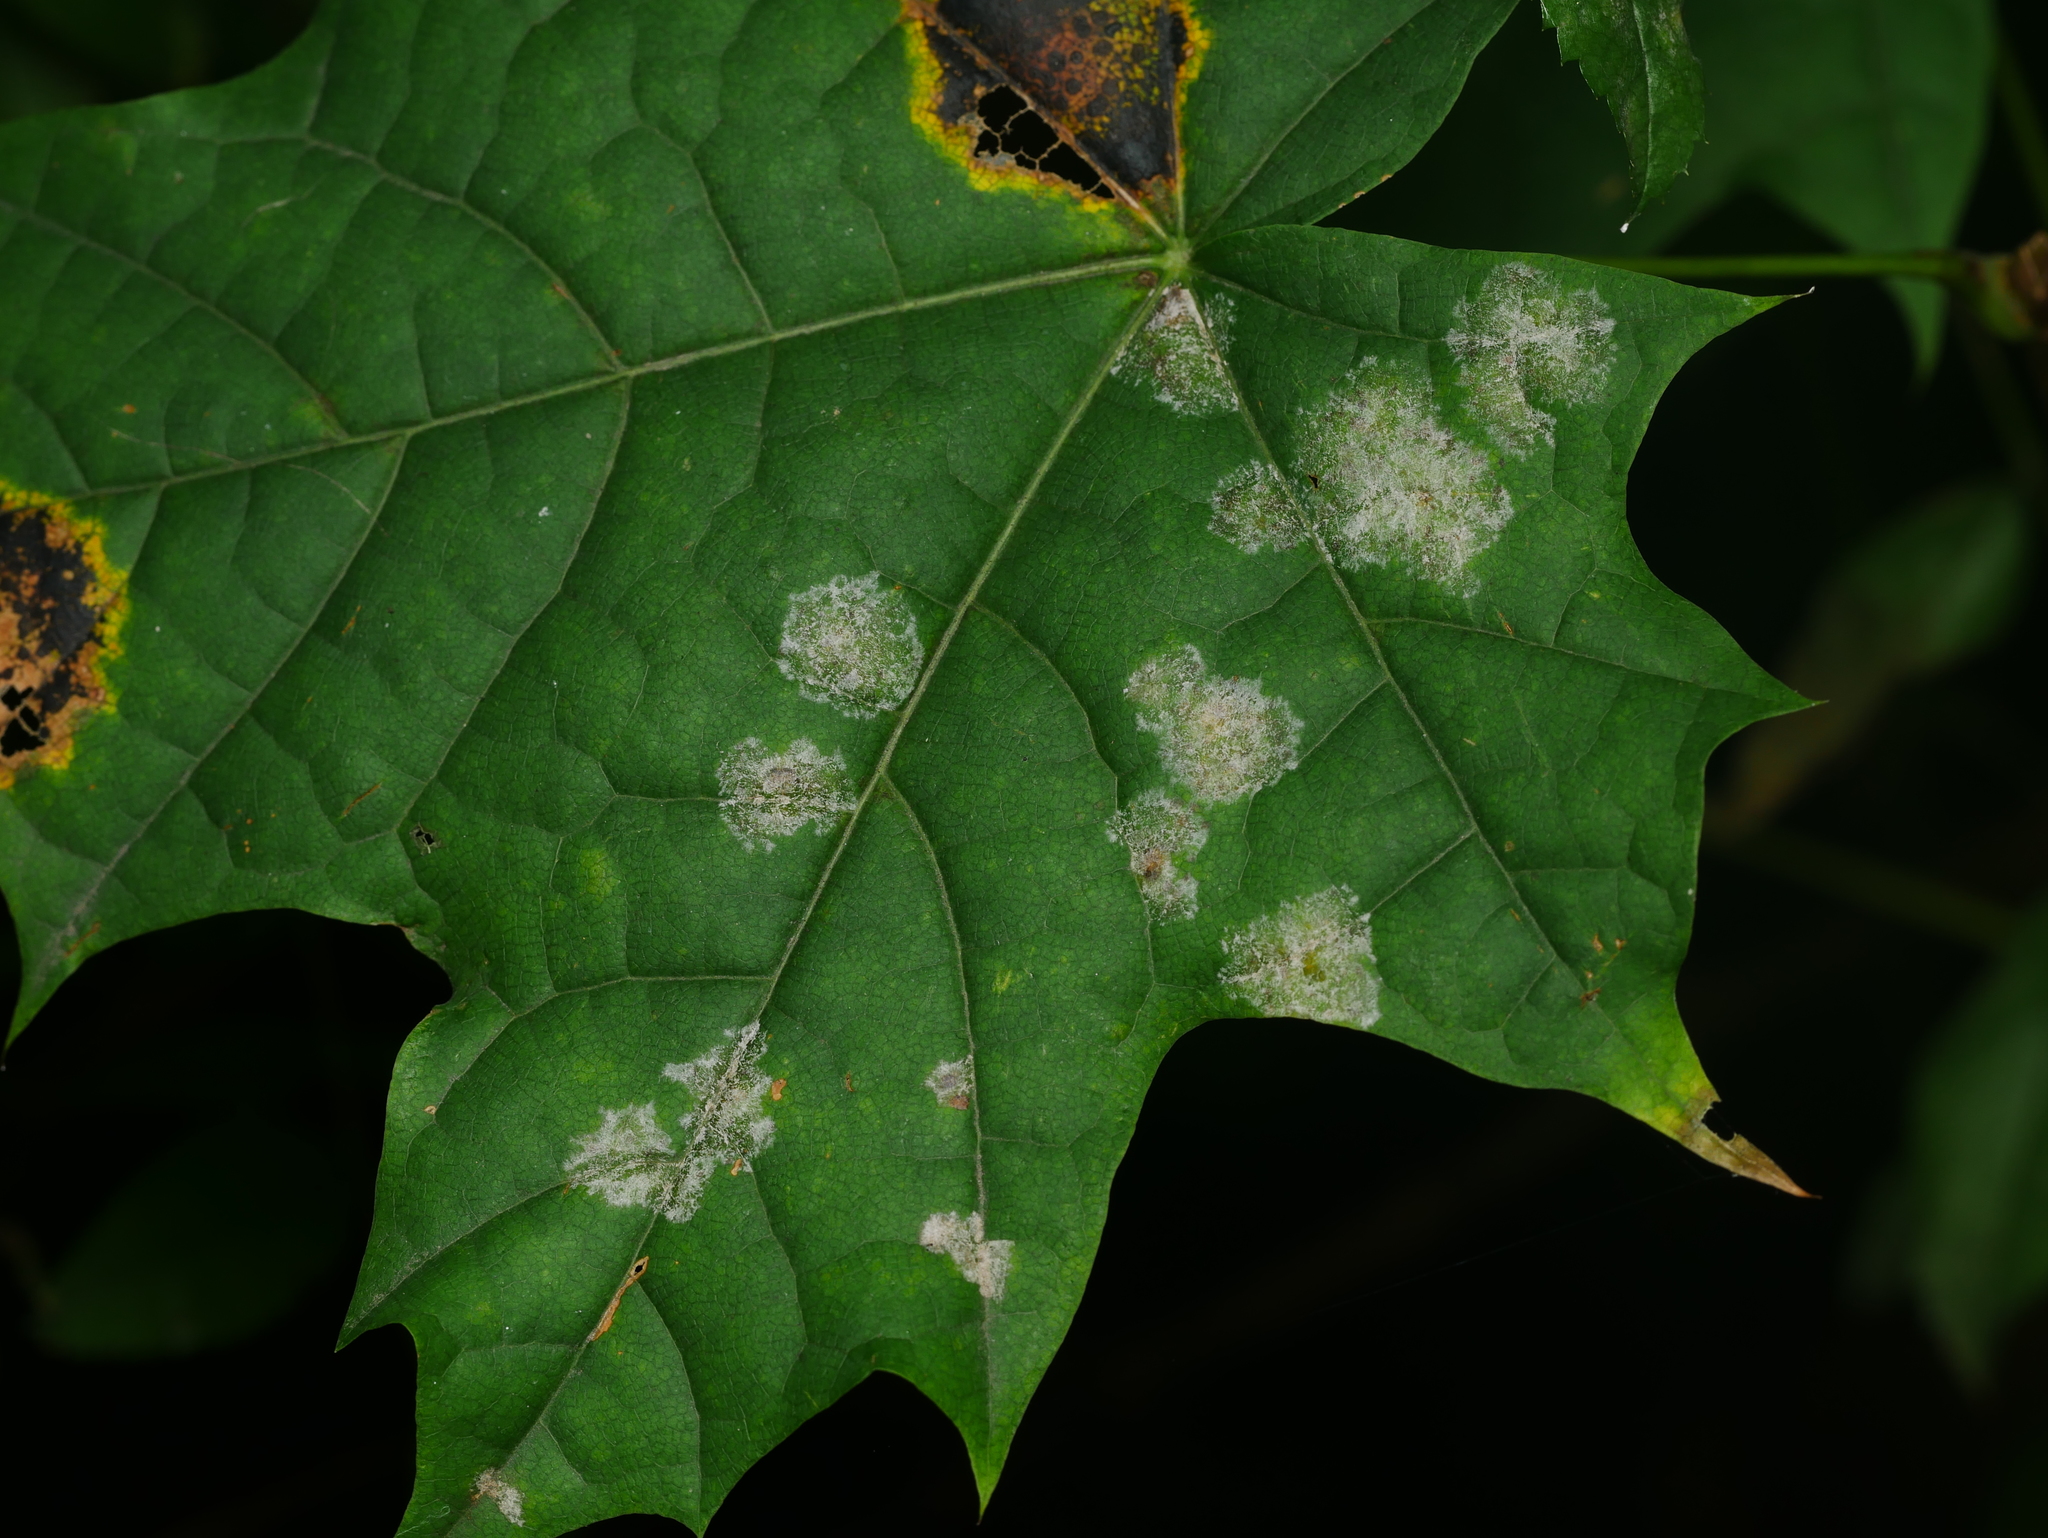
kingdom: Fungi
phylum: Ascomycota
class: Leotiomycetes
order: Helotiales
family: Erysiphaceae
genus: Sawadaea
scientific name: Sawadaea tulasnei
